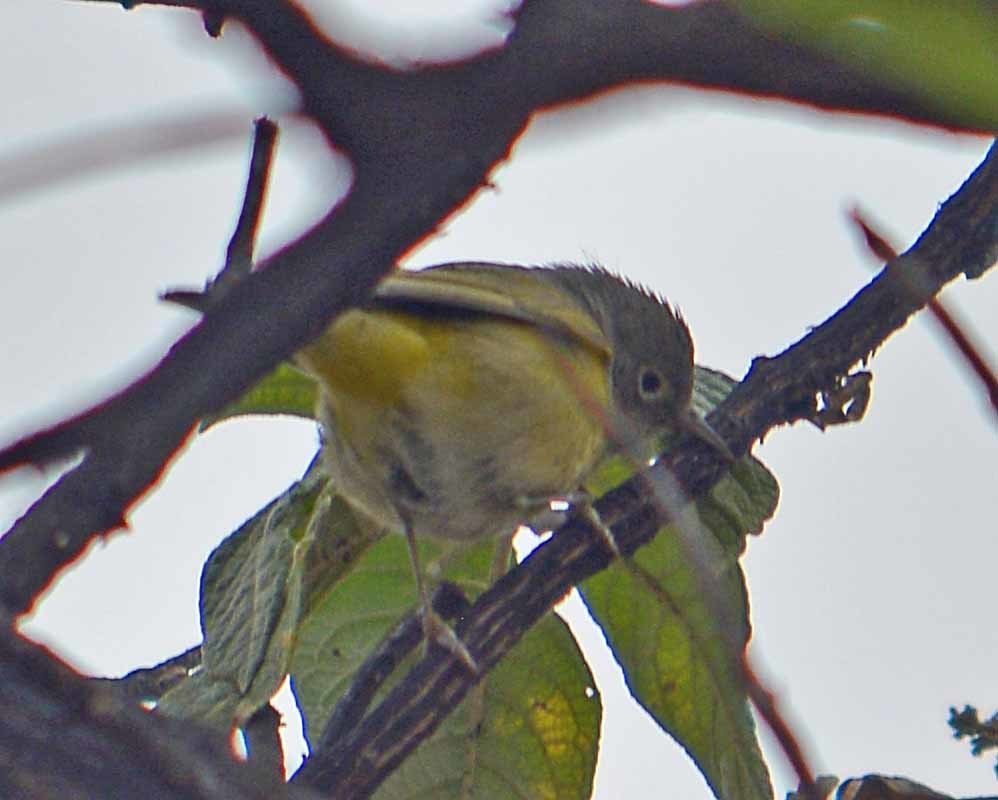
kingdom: Animalia
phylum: Chordata
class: Aves
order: Passeriformes
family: Parulidae
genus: Leiothlypis
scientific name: Leiothlypis ruficapilla
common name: Nashville warbler
